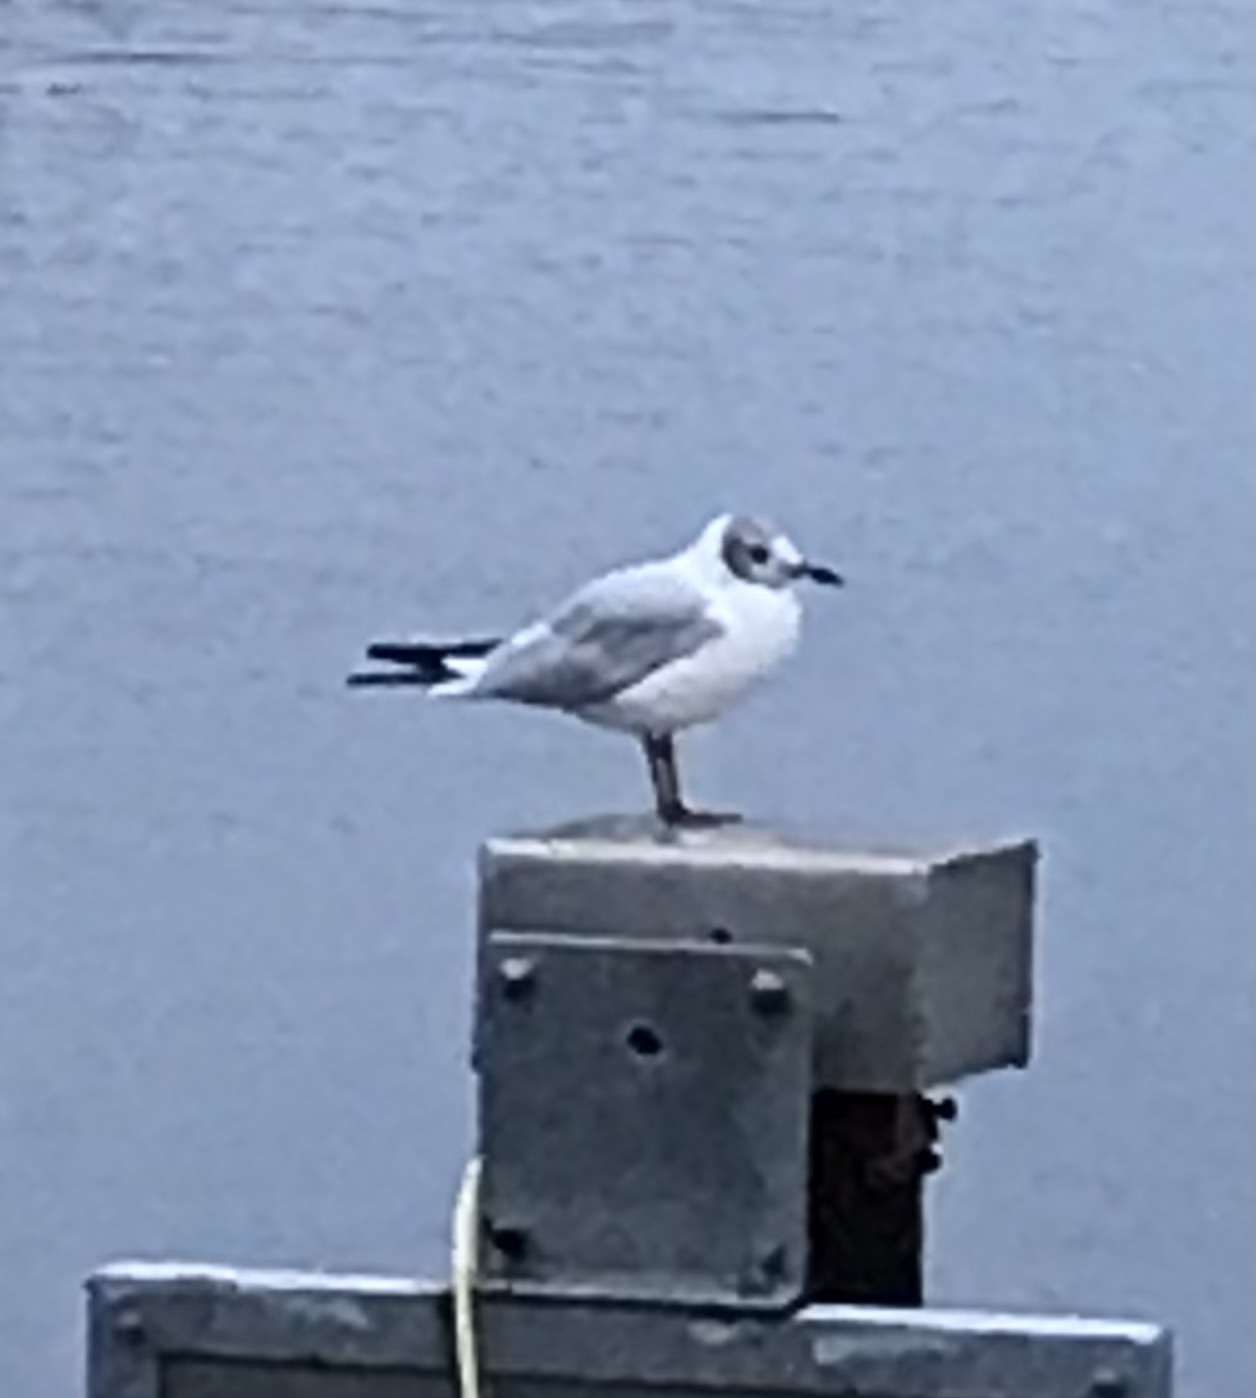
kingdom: Animalia
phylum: Chordata
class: Aves
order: Charadriiformes
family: Laridae
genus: Chroicocephalus
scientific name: Chroicocephalus ridibundus
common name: Black-headed gull
